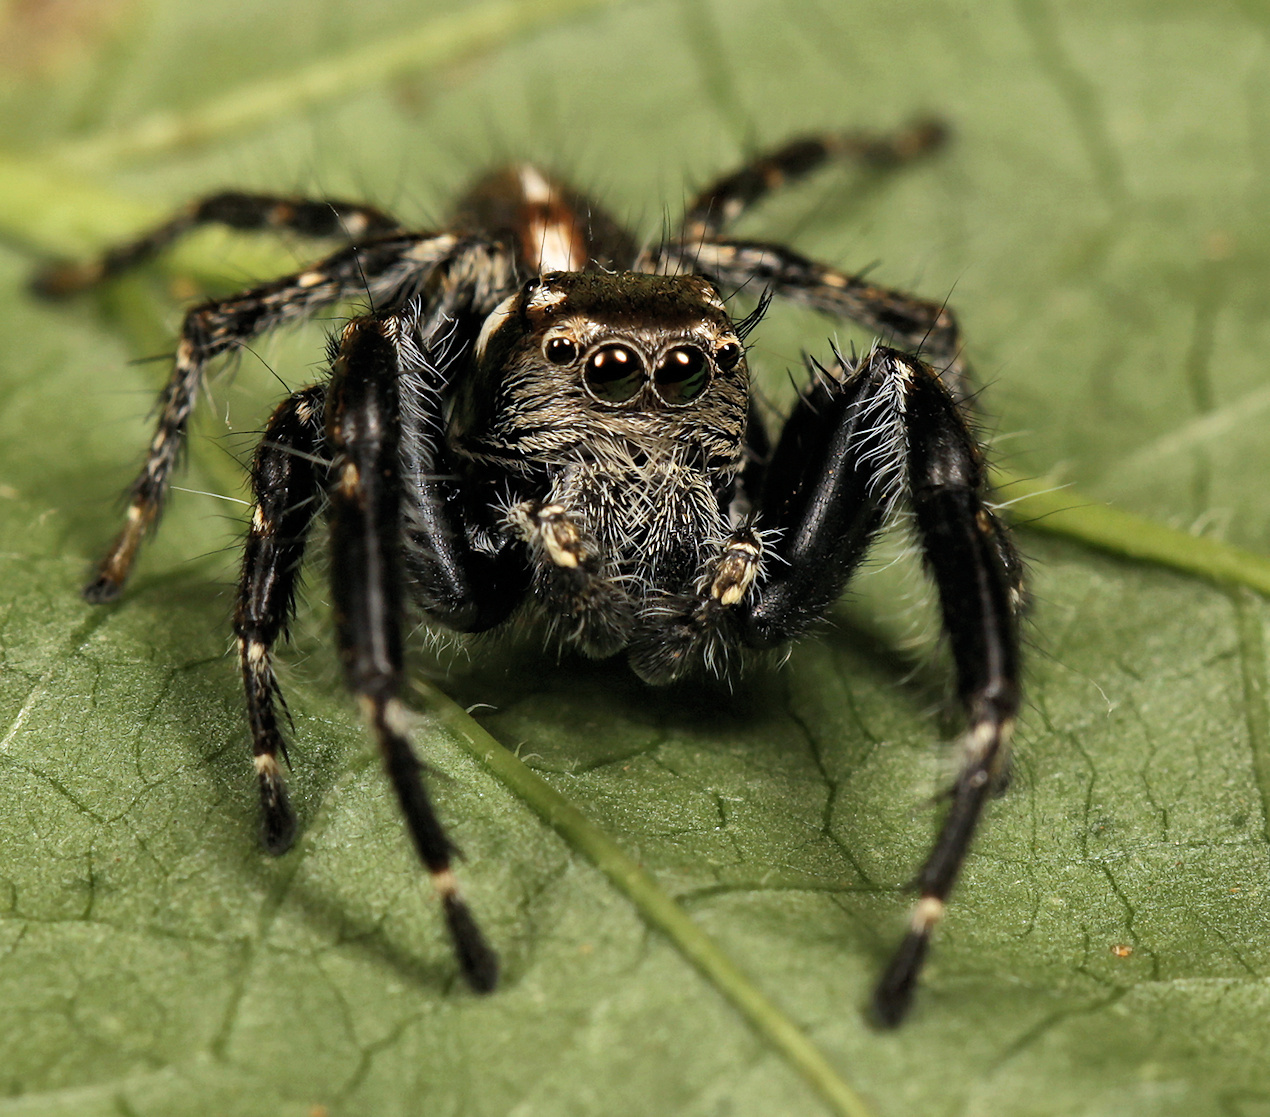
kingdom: Animalia
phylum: Arthropoda
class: Arachnida
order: Araneae
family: Salticidae
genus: Hyllus
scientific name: Hyllus dotatus
